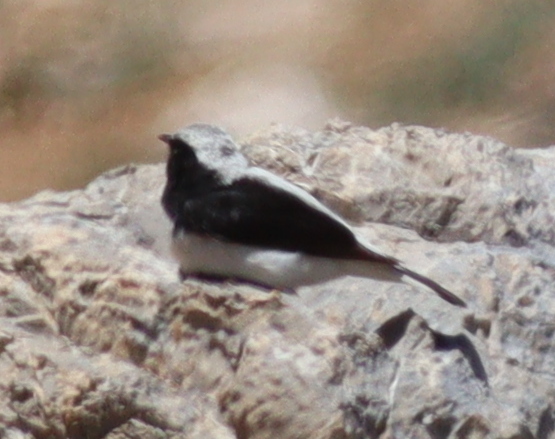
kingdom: Animalia
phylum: Chordata
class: Aves
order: Passeriformes
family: Muscicapidae
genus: Oenanthe
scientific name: Oenanthe finschii
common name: Finsch's wheatear
